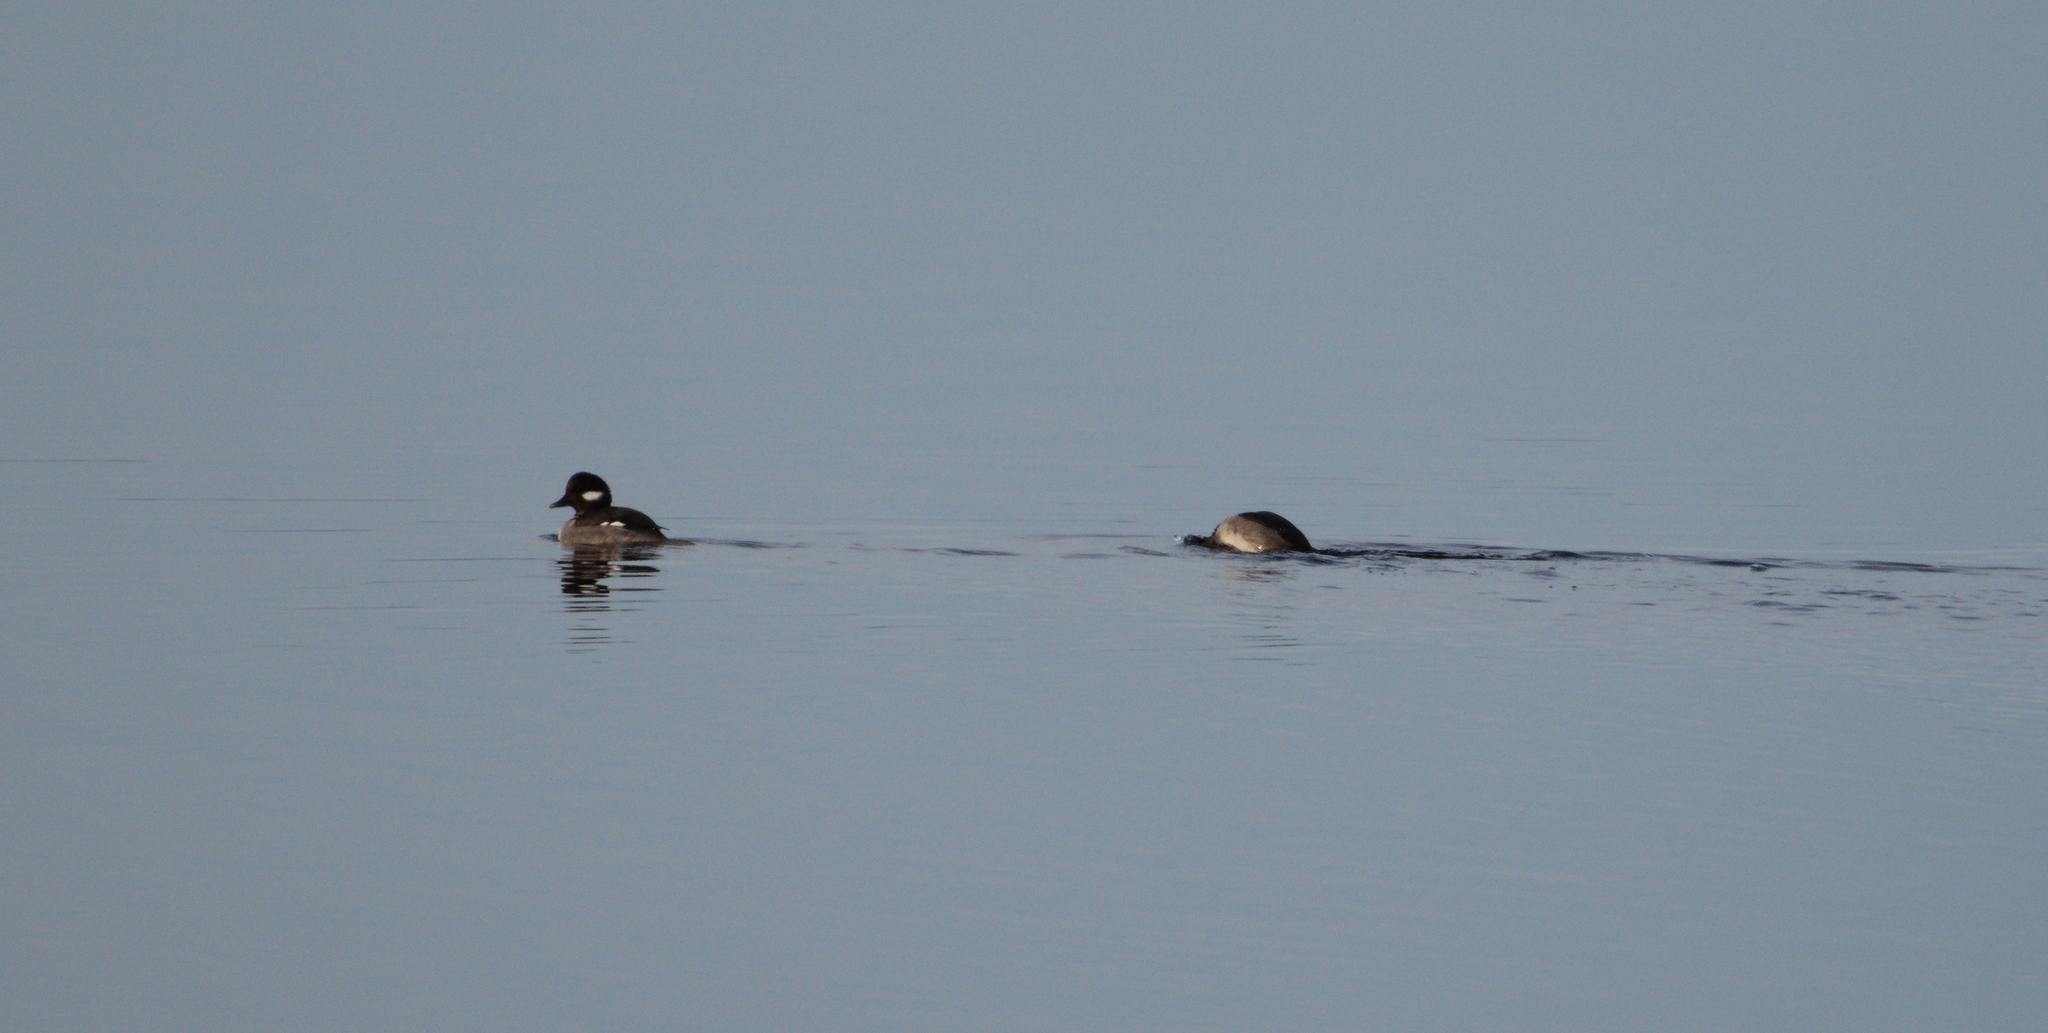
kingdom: Animalia
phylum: Chordata
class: Aves
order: Anseriformes
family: Anatidae
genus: Bucephala
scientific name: Bucephala albeola
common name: Bufflehead
